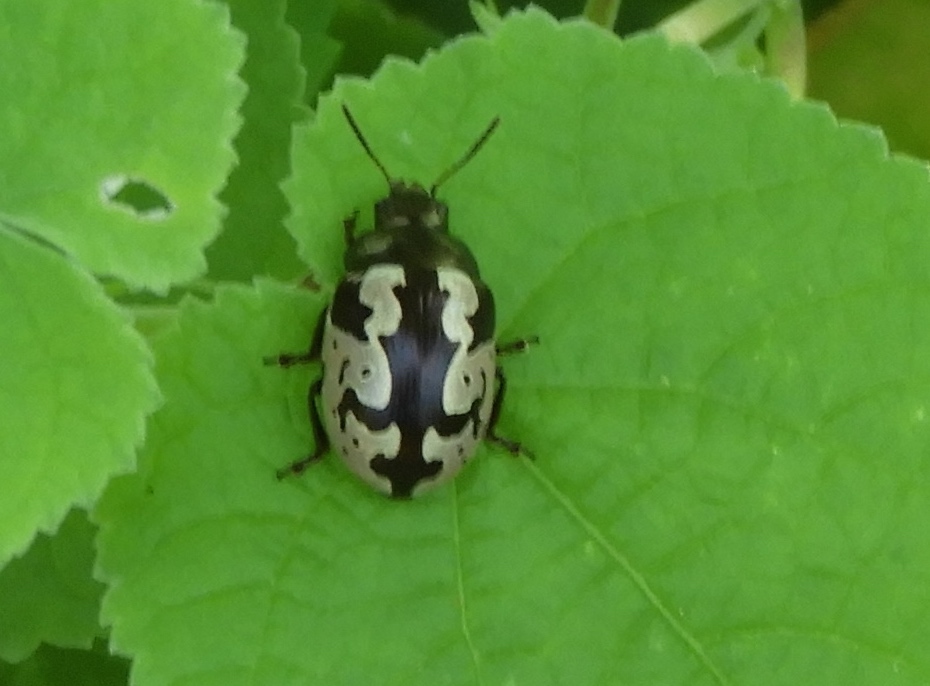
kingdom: Animalia
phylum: Arthropoda
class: Insecta
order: Coleoptera
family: Chrysomelidae
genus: Calligrapha
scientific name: Calligrapha ancoralis
